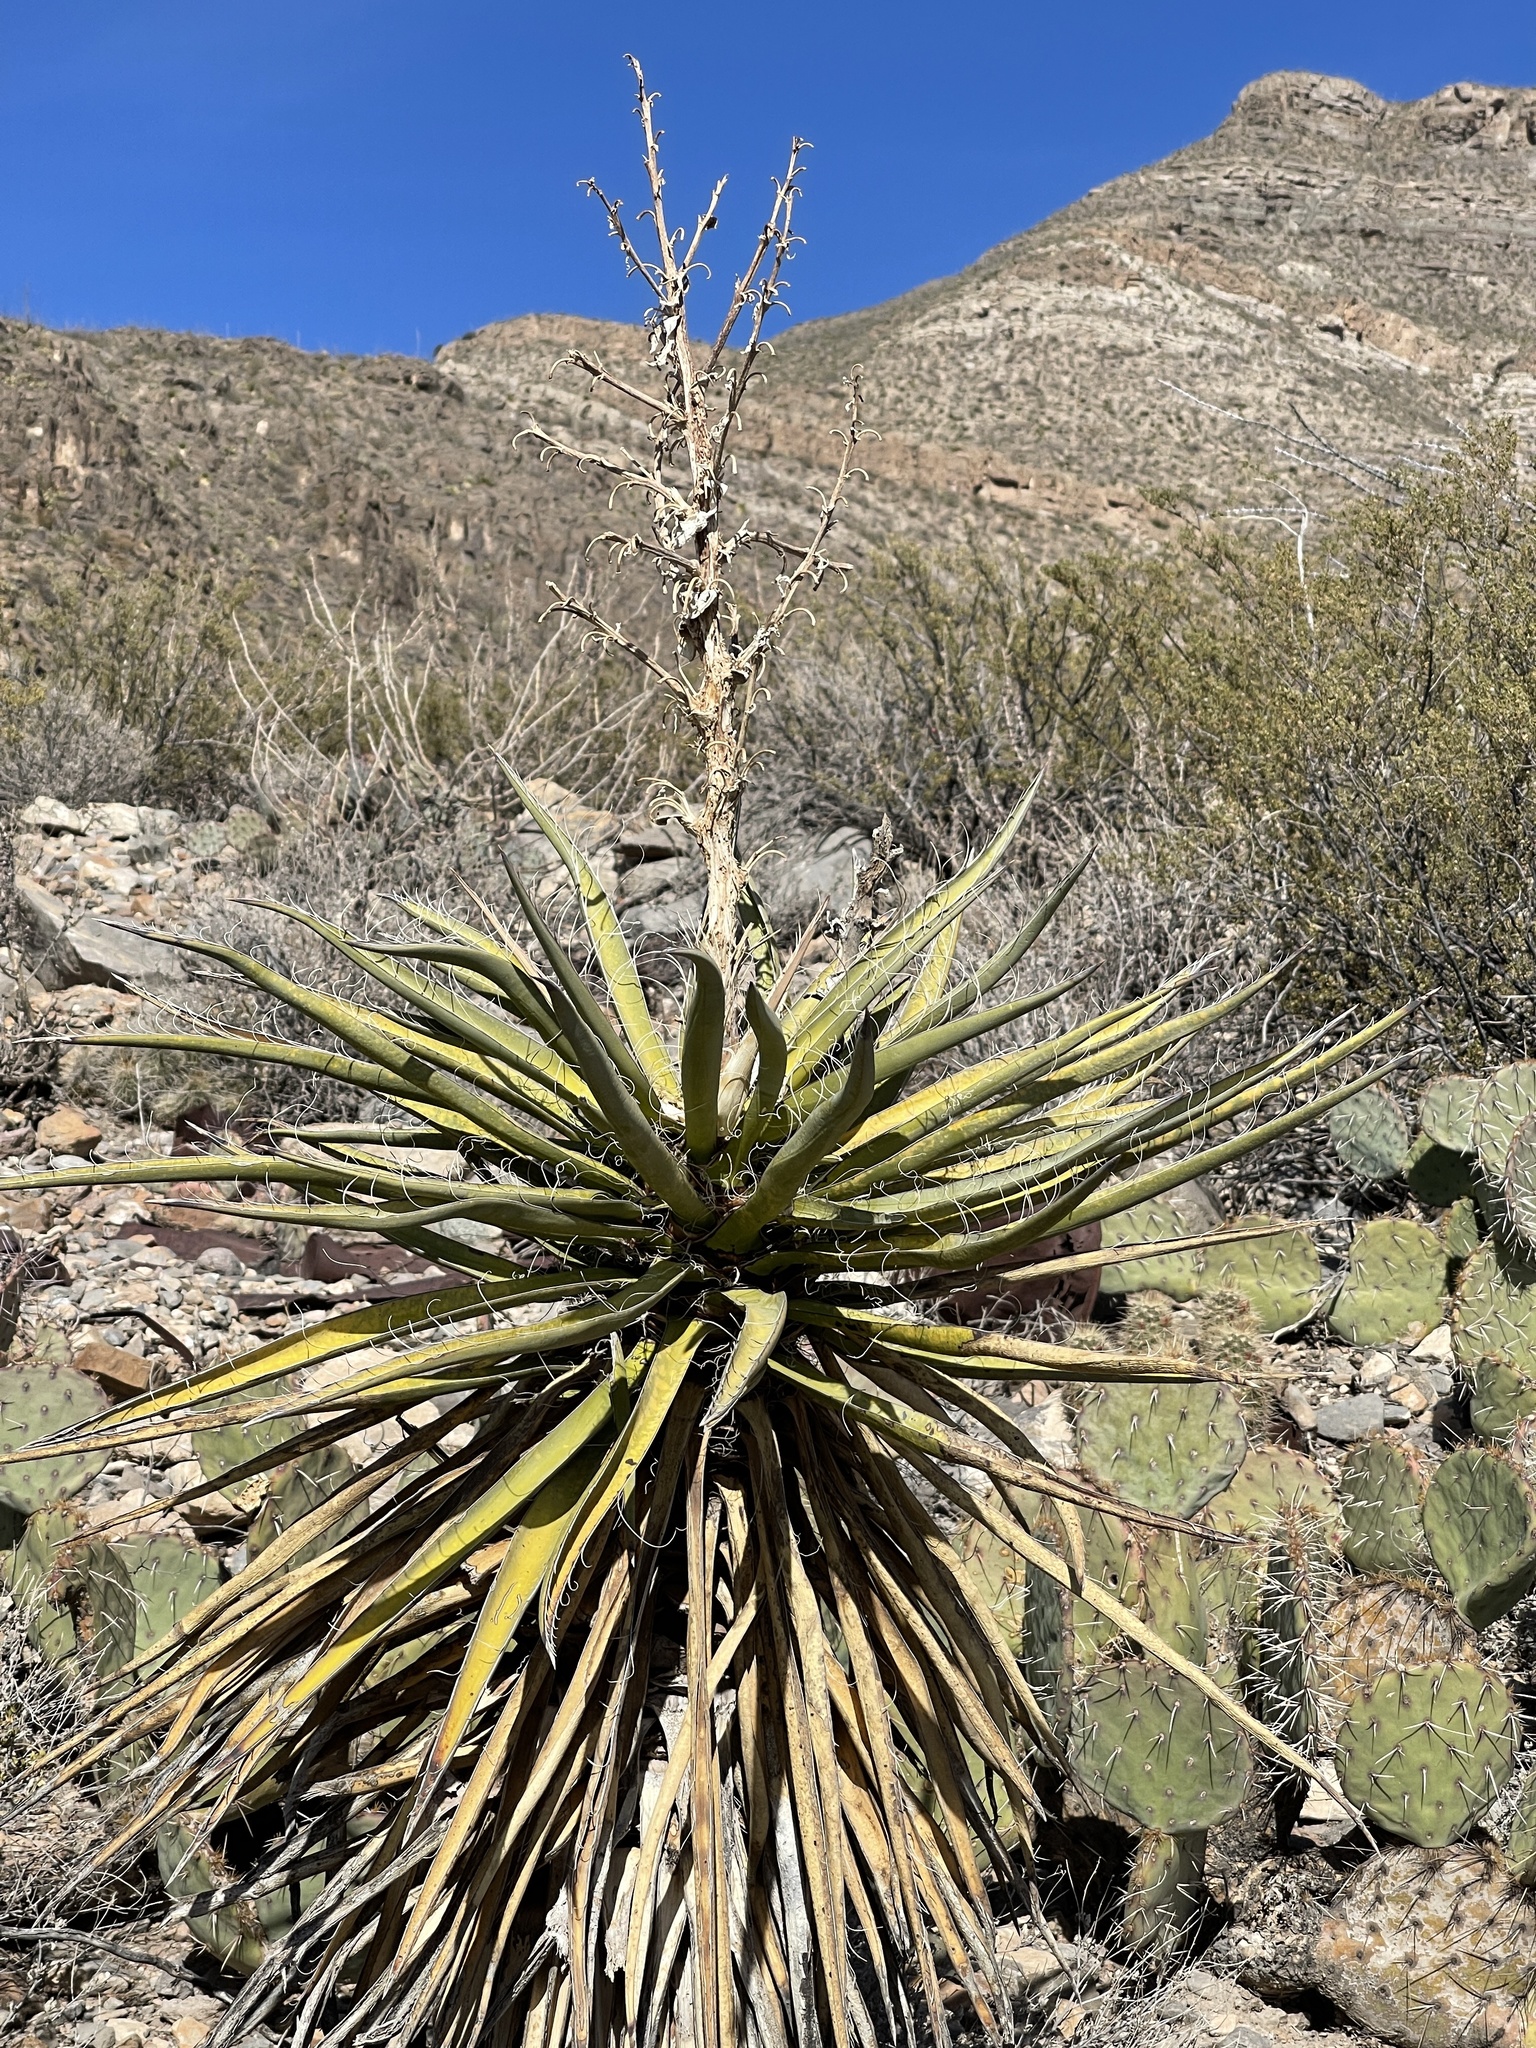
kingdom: Plantae
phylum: Tracheophyta
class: Liliopsida
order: Asparagales
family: Asparagaceae
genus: Yucca
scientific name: Yucca treculiana
